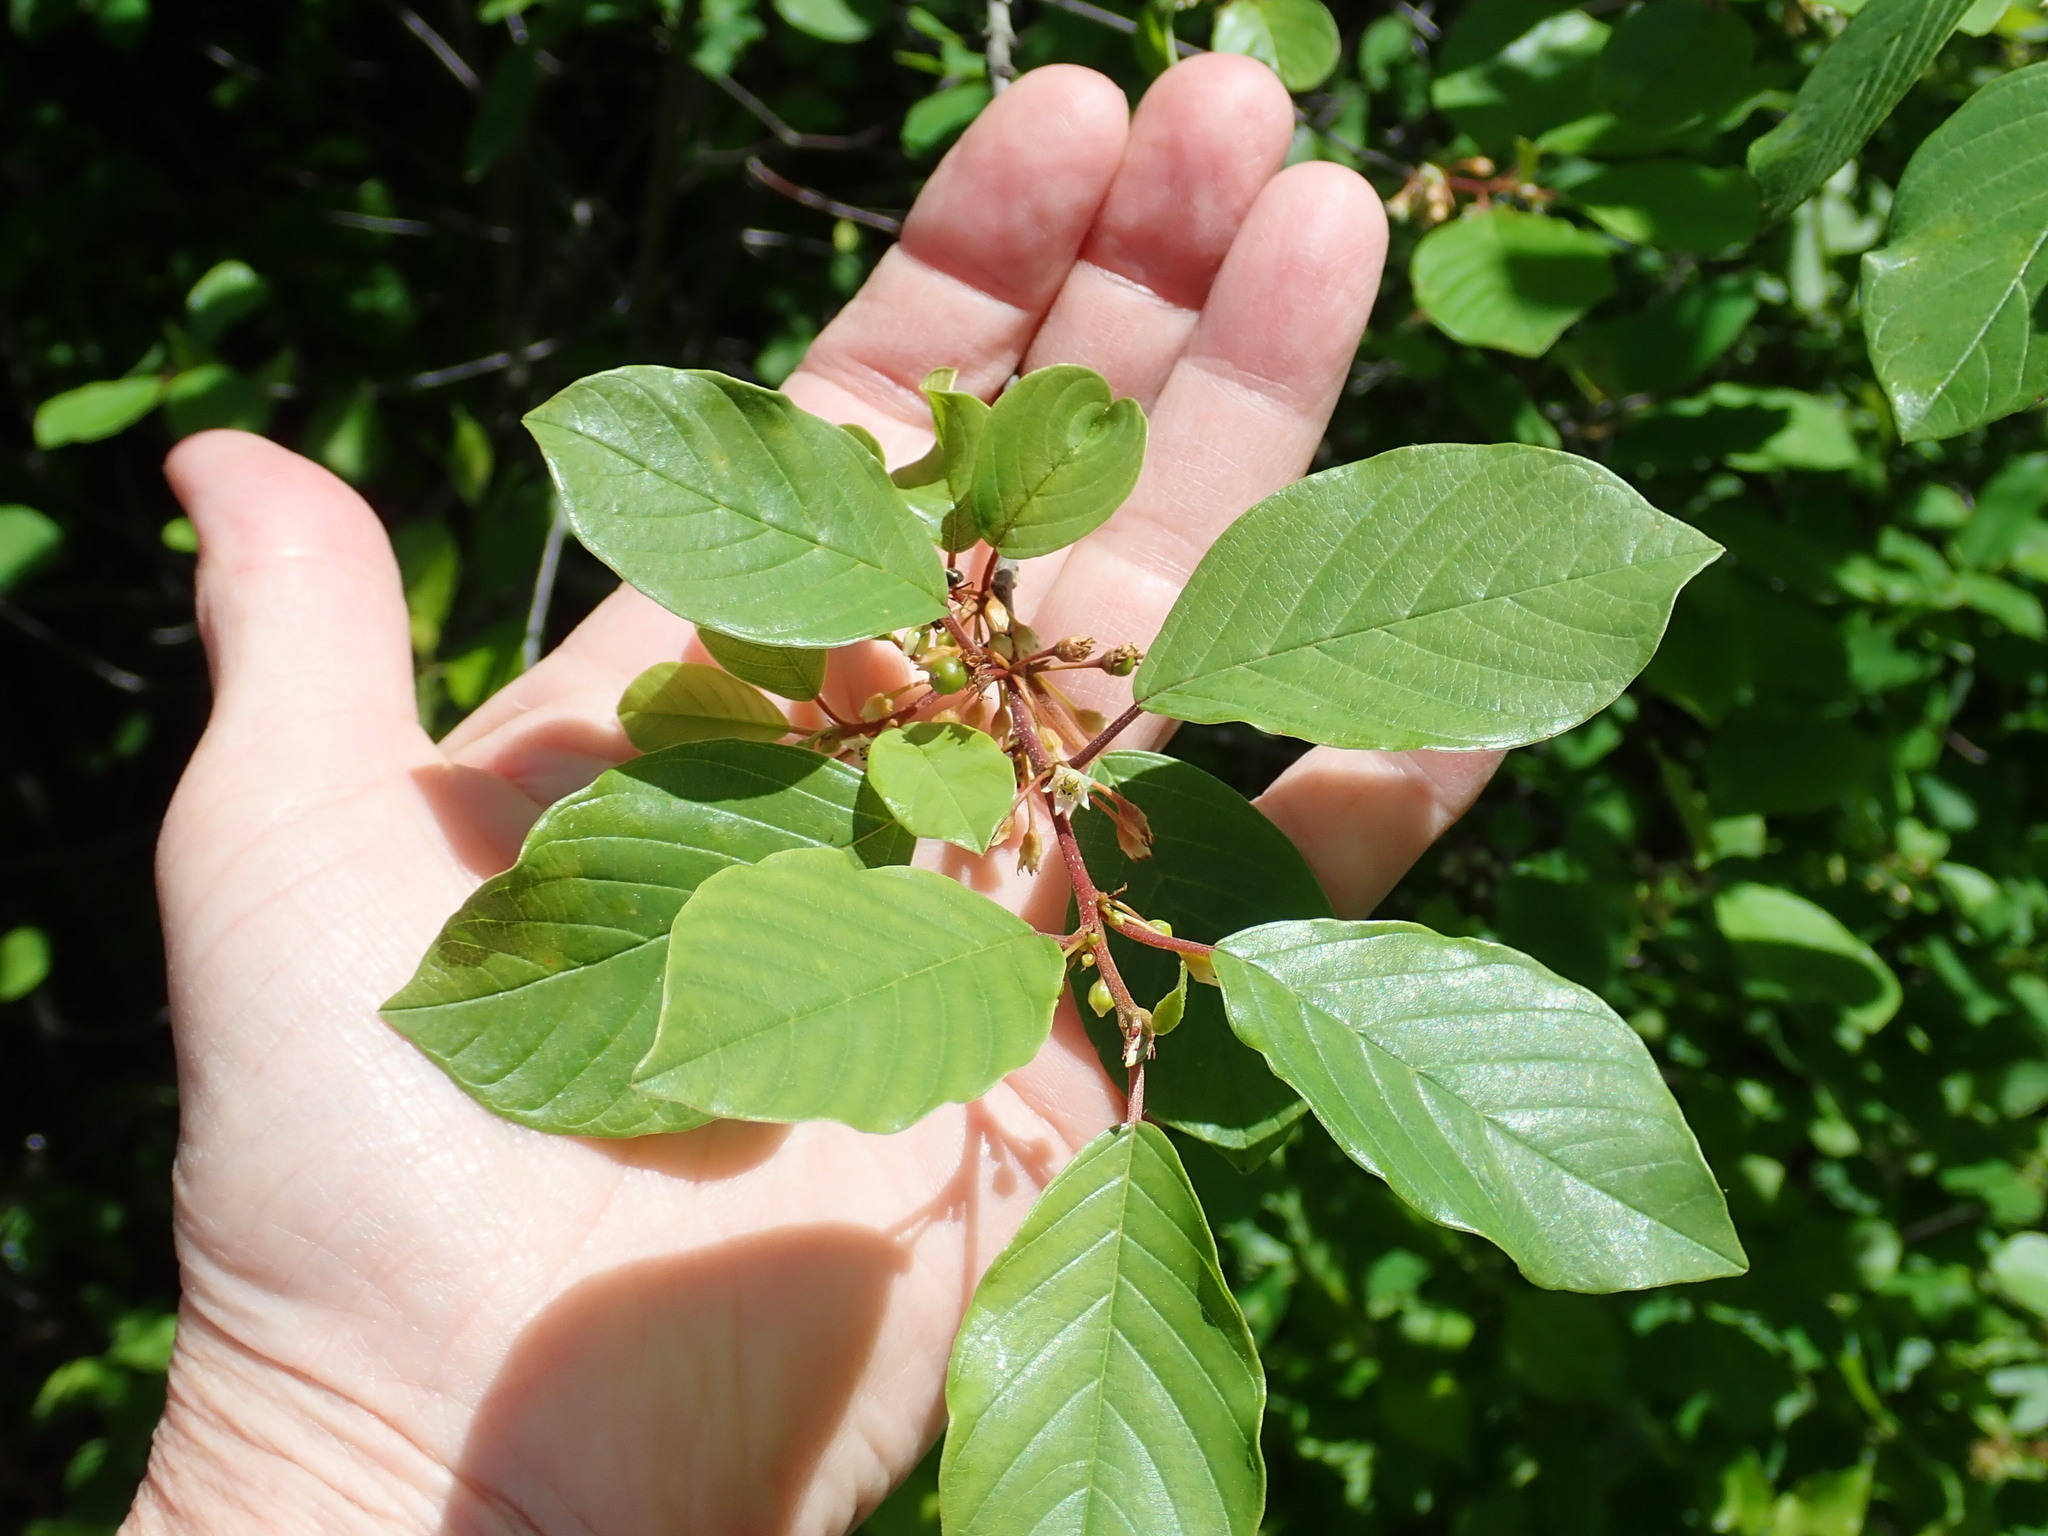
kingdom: Plantae
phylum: Tracheophyta
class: Magnoliopsida
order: Rosales
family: Rhamnaceae
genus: Frangula
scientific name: Frangula alnus
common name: Alder buckthorn
